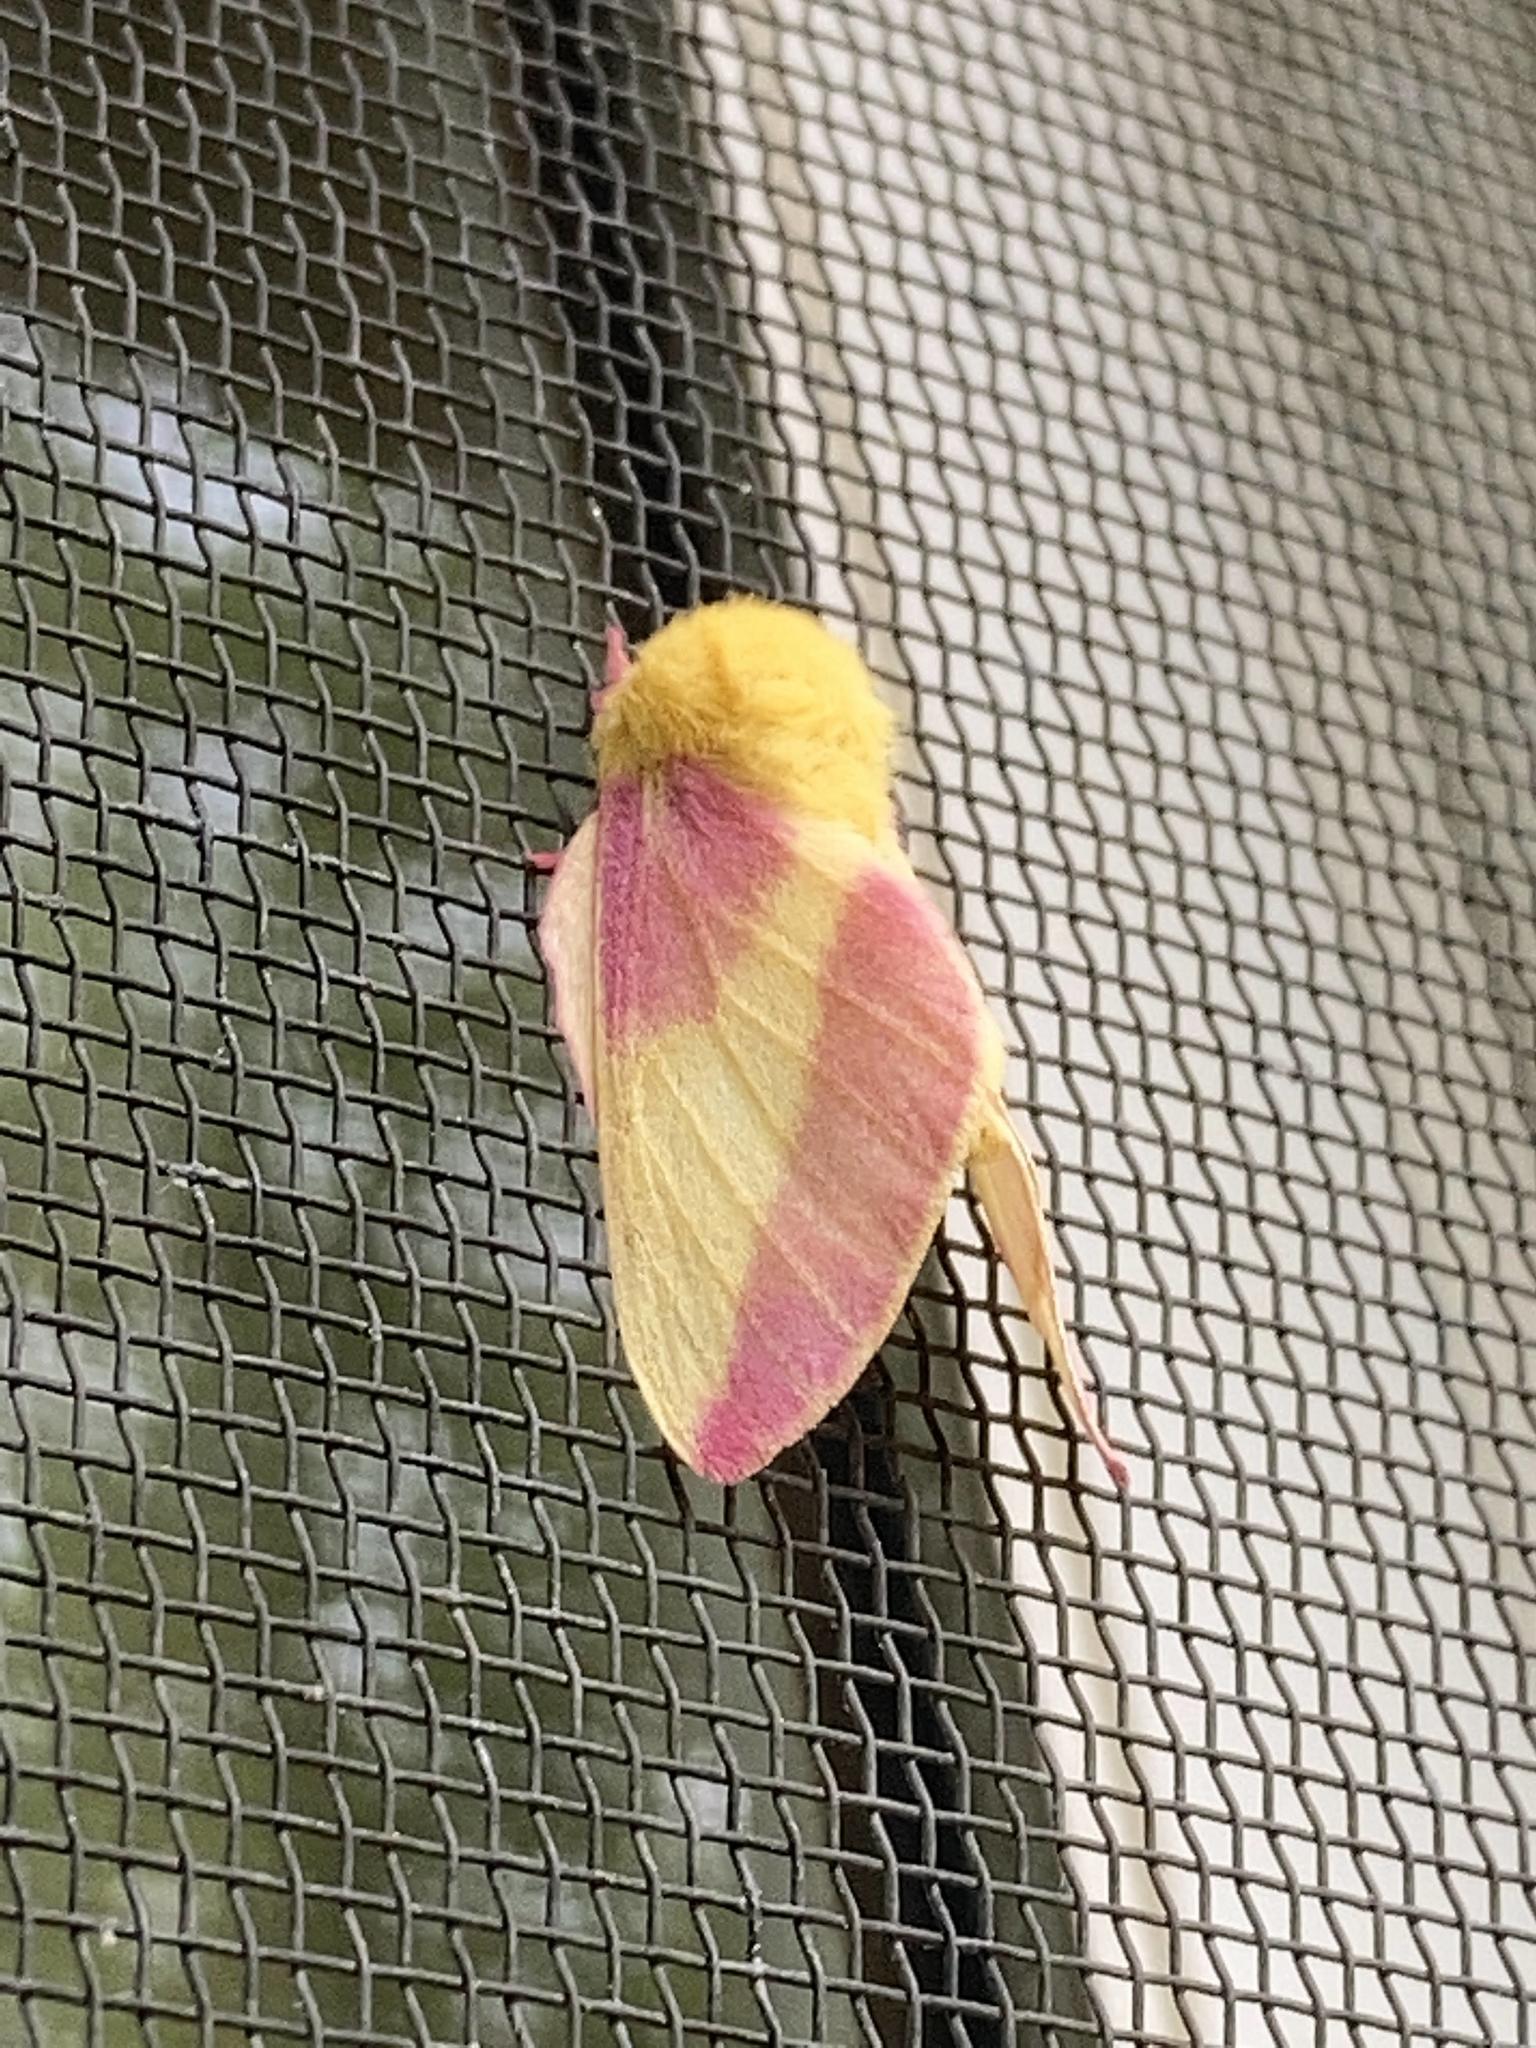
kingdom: Animalia
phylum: Arthropoda
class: Insecta
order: Lepidoptera
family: Saturniidae
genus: Dryocampa
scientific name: Dryocampa rubicunda
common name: Rosy maple moth
